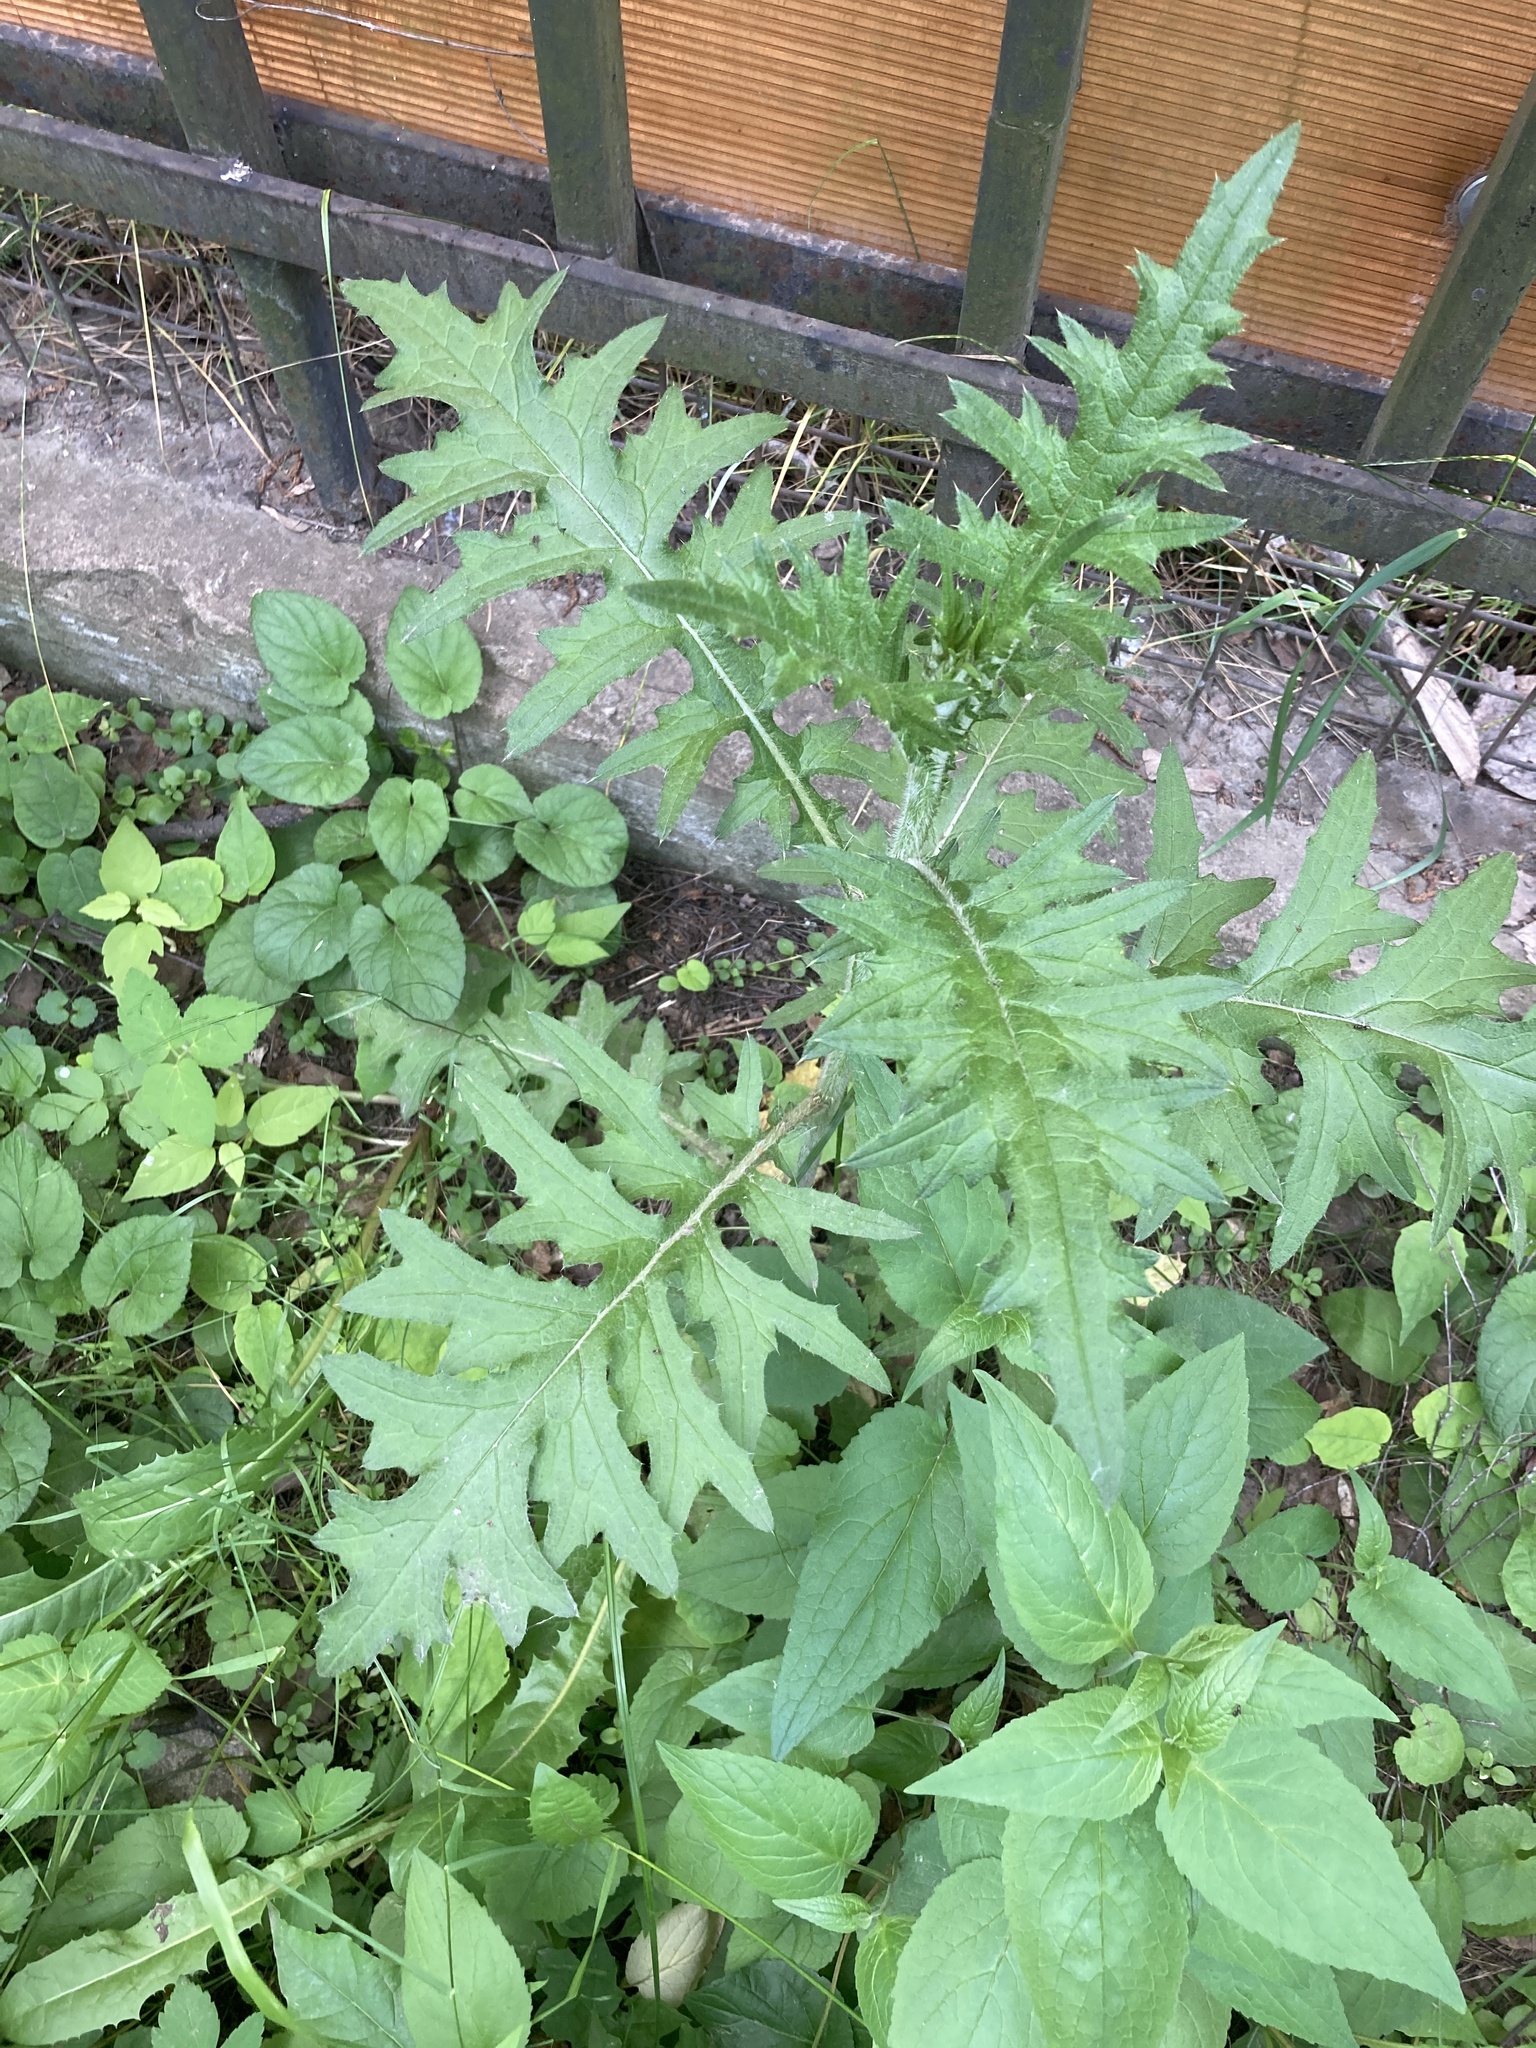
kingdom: Plantae
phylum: Tracheophyta
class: Magnoliopsida
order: Asterales
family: Asteraceae
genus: Cirsium
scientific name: Cirsium vulgare
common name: Bull thistle
